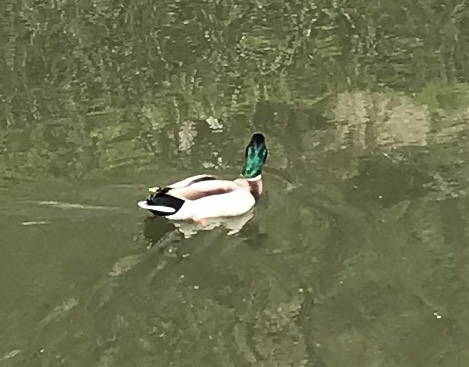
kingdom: Animalia
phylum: Chordata
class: Aves
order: Anseriformes
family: Anatidae
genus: Anas
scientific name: Anas platyrhynchos
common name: Mallard
